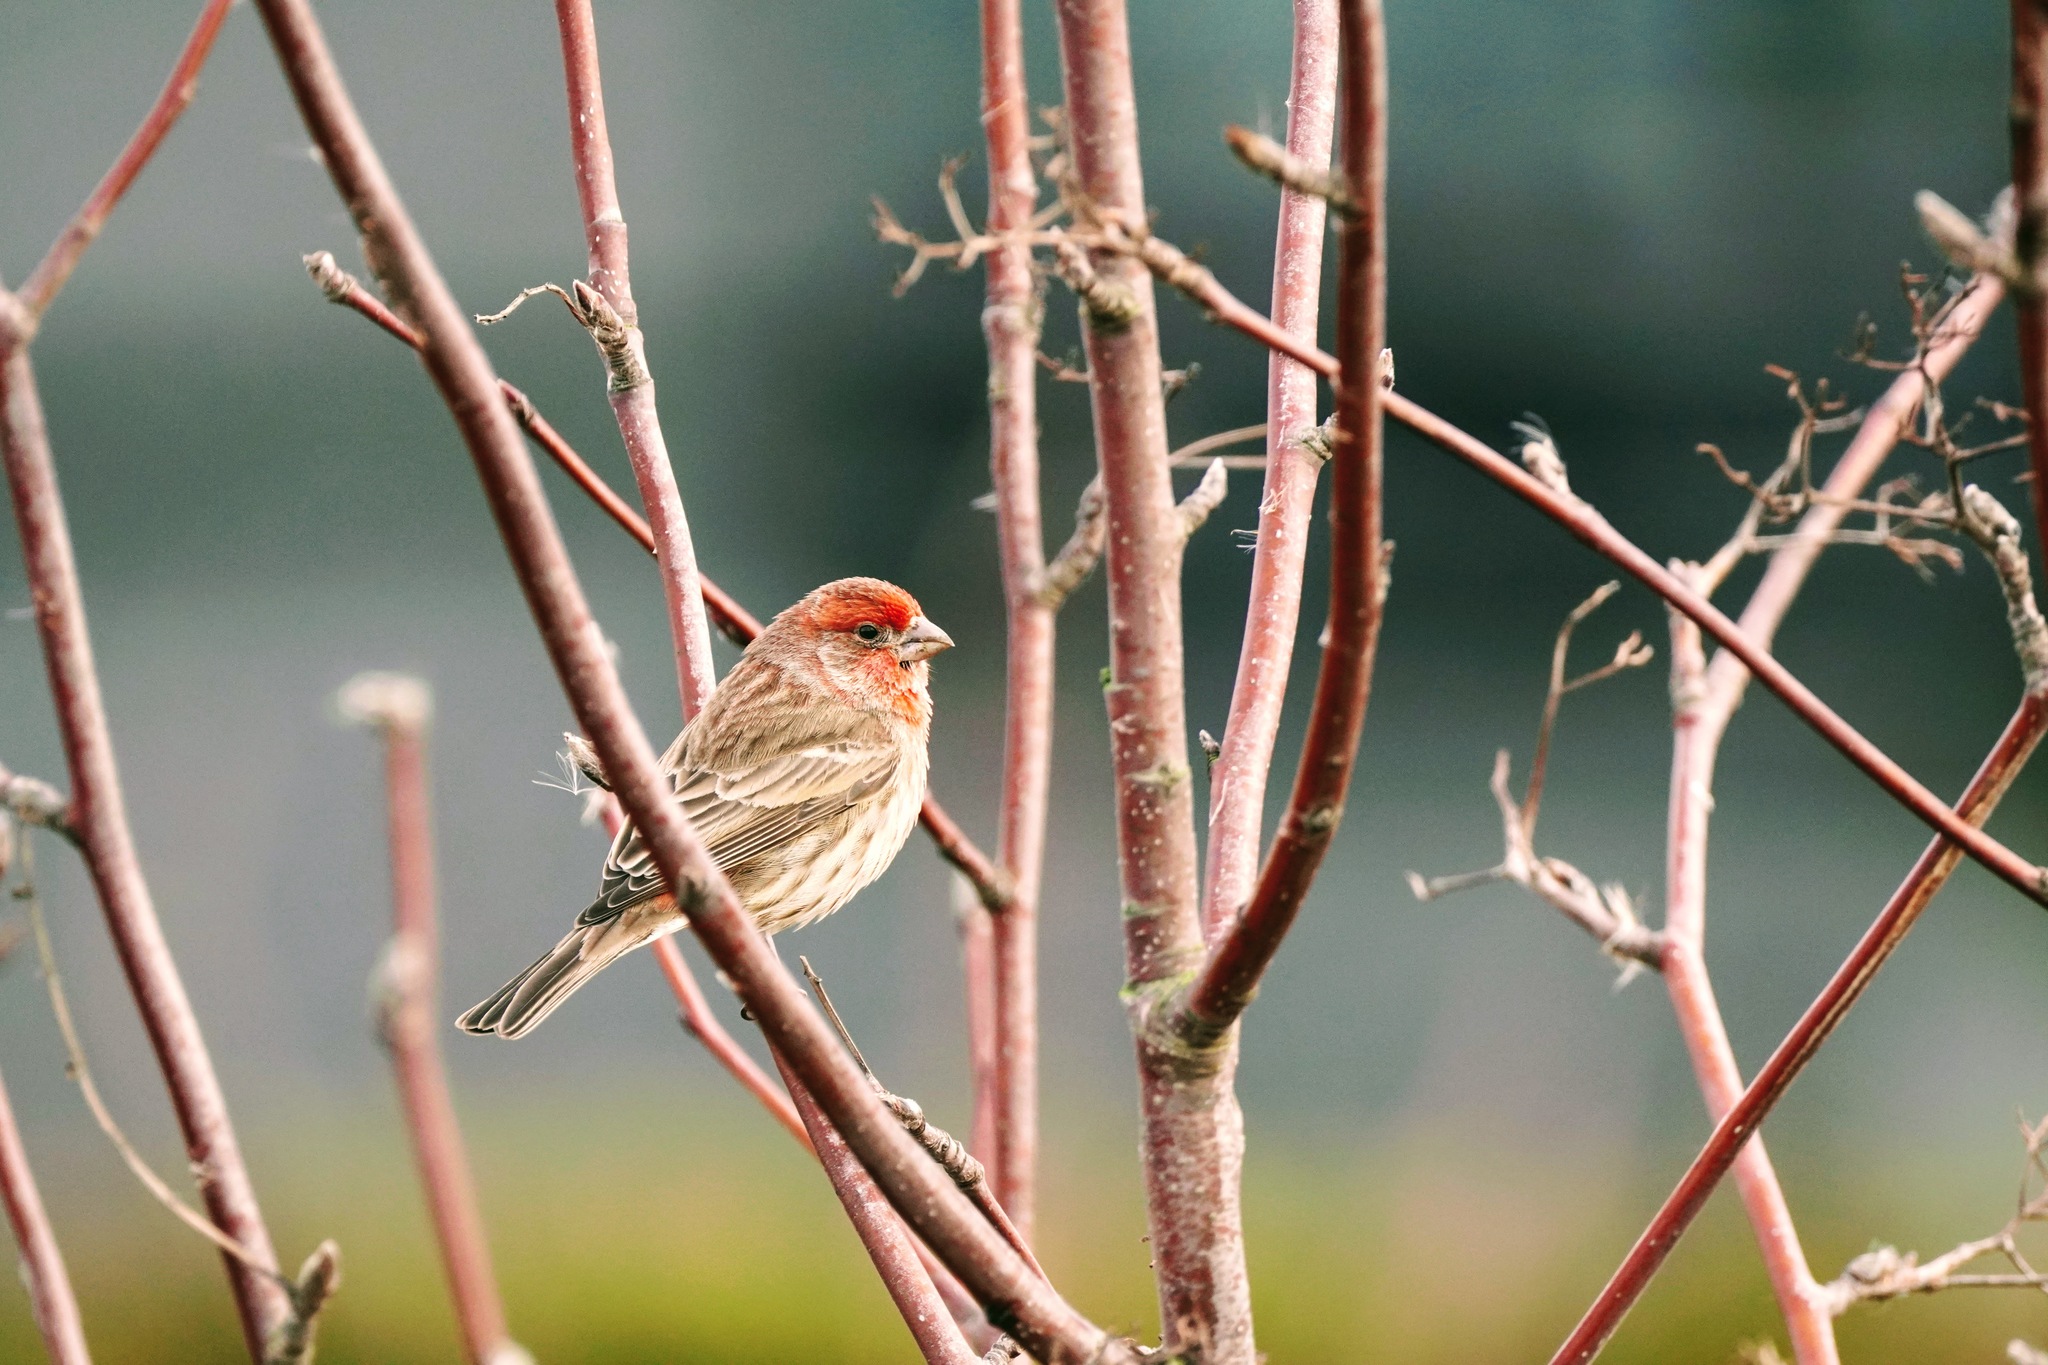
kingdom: Animalia
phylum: Chordata
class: Aves
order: Passeriformes
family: Fringillidae
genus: Haemorhous
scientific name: Haemorhous mexicanus
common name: House finch
